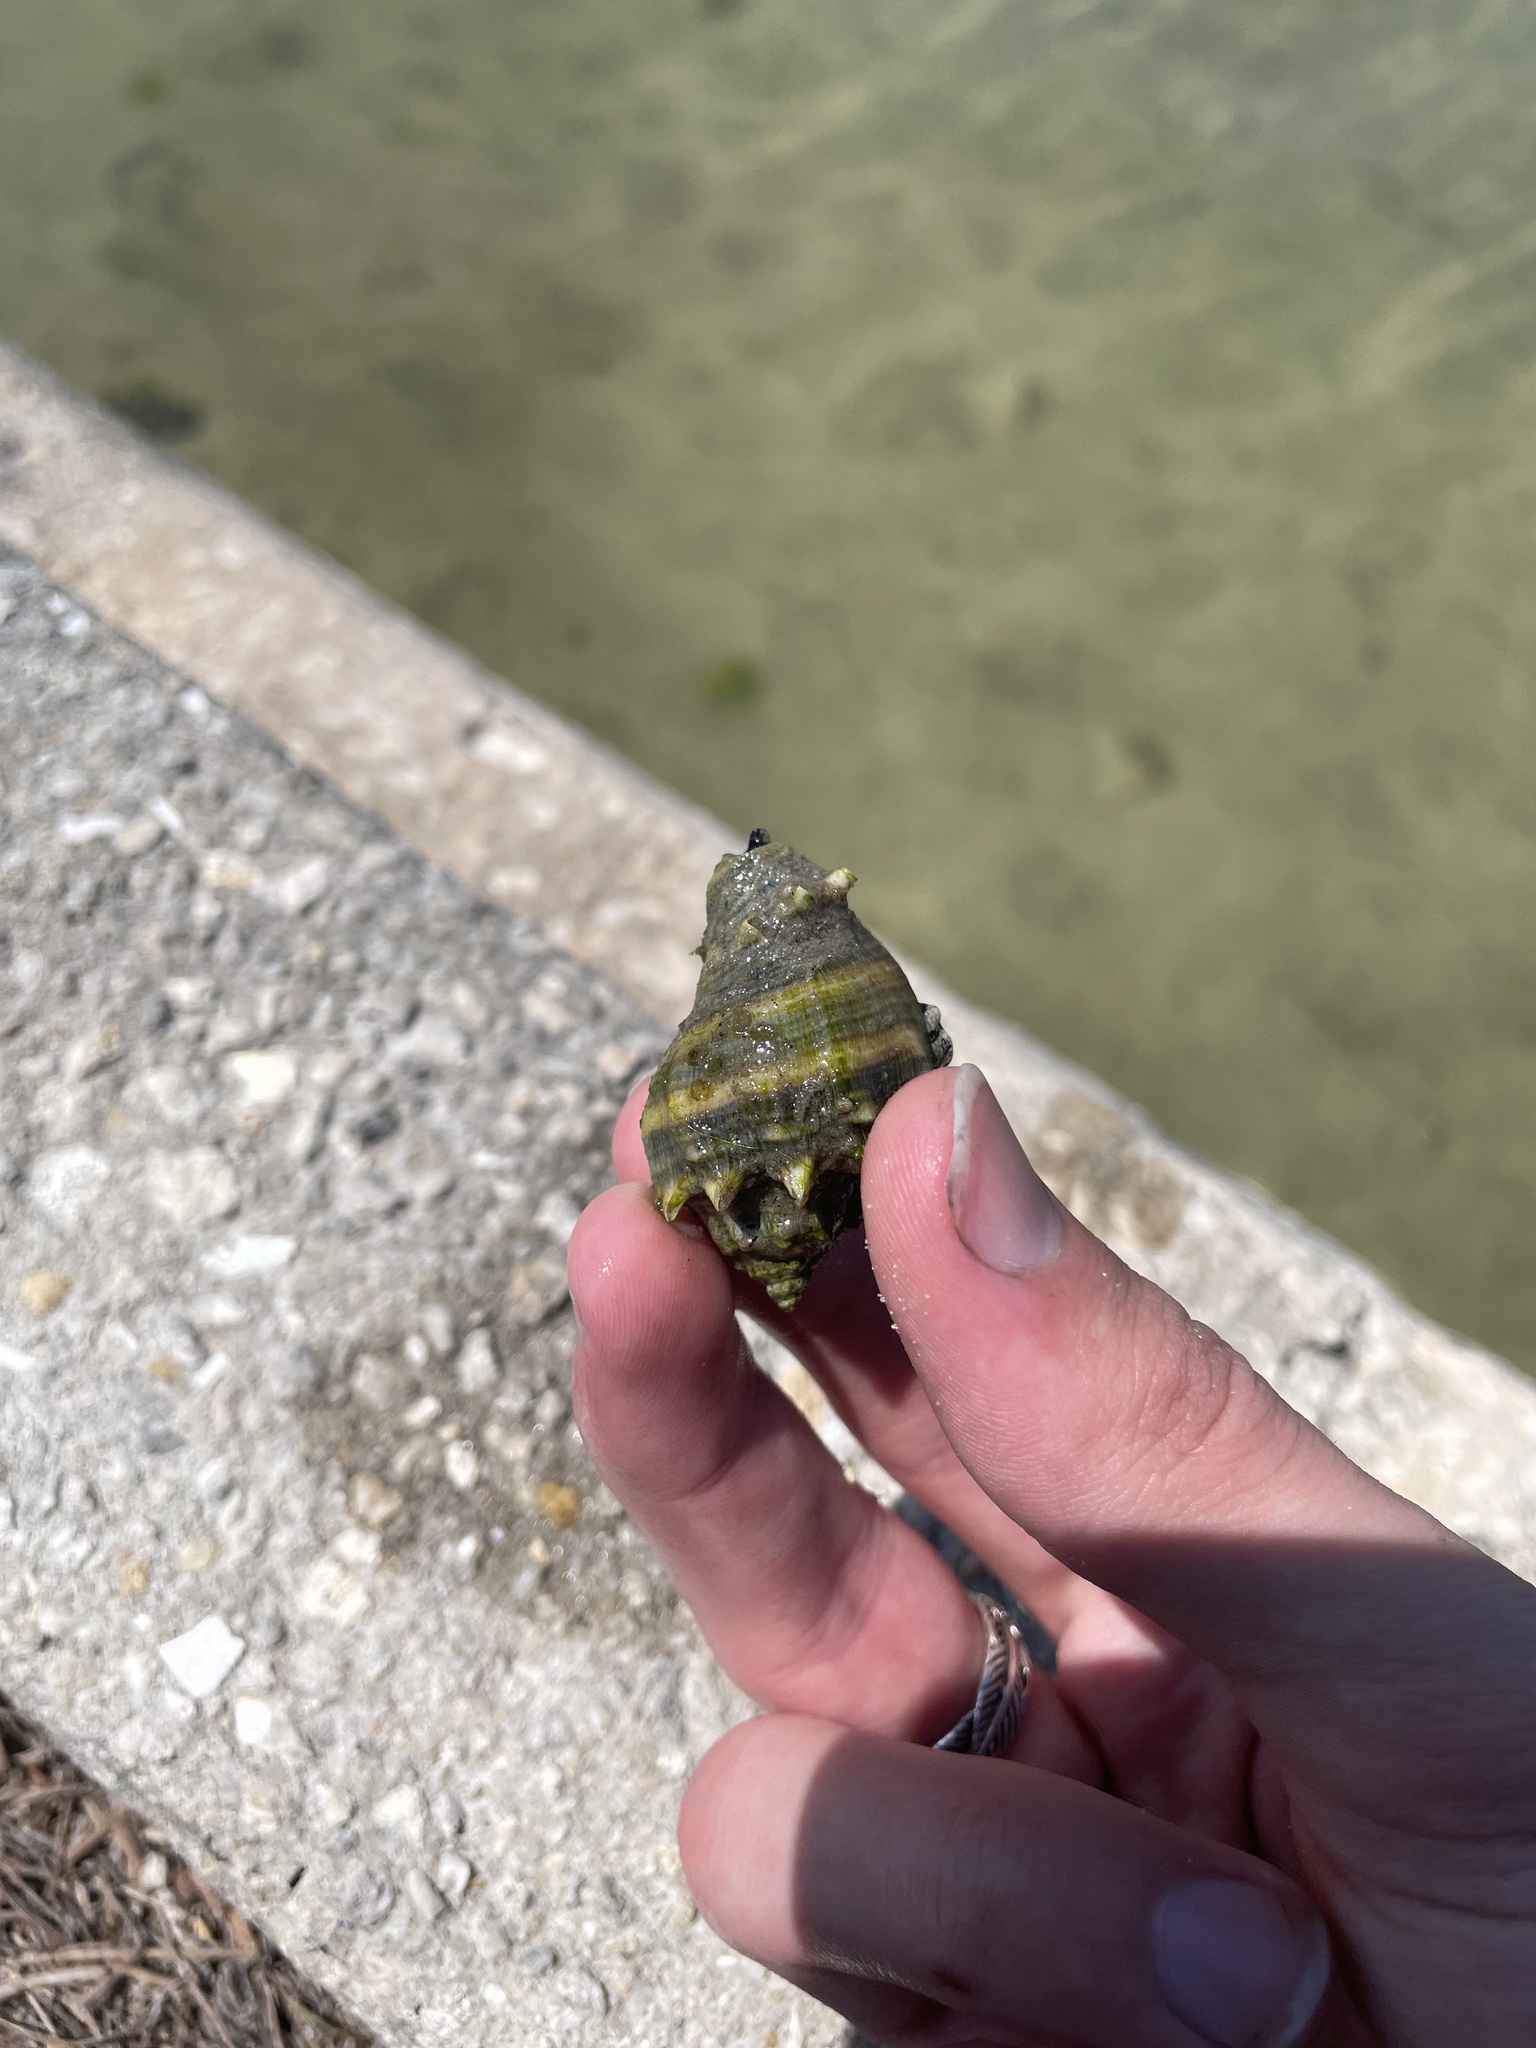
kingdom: Animalia
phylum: Mollusca
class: Gastropoda
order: Neogastropoda
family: Melongenidae
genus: Melongena
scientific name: Melongena corona
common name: American crown conch
